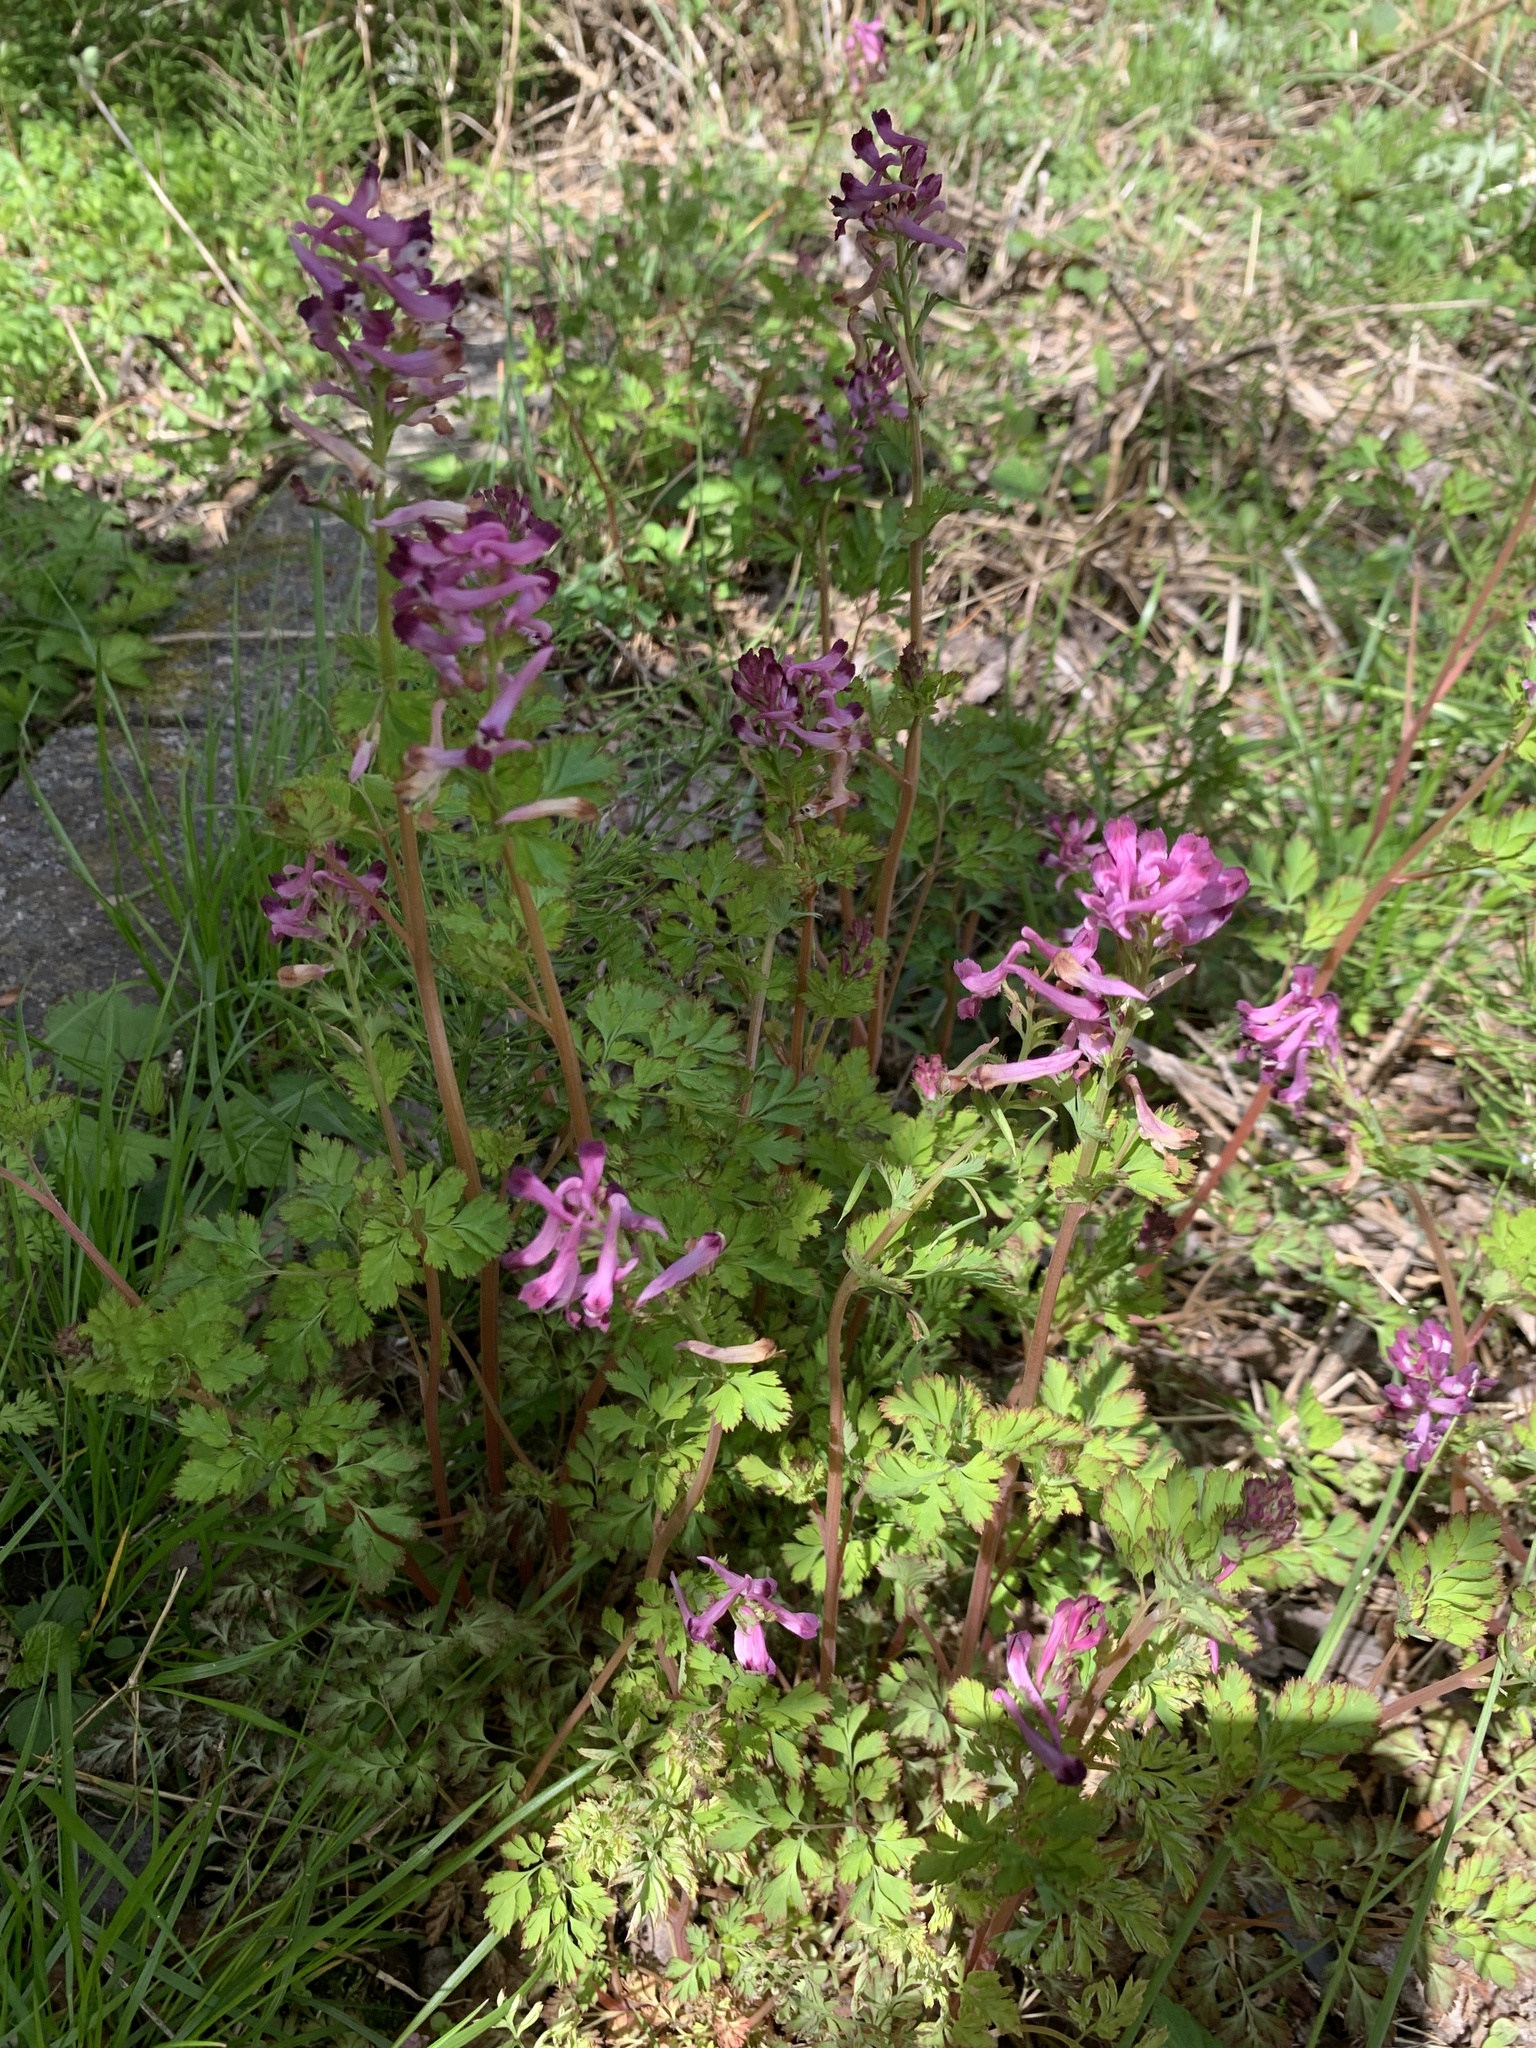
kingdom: Plantae
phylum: Tracheophyta
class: Magnoliopsida
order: Ranunculales
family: Papaveraceae
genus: Corydalis
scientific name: Corydalis incisa
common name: Incised fumewort
